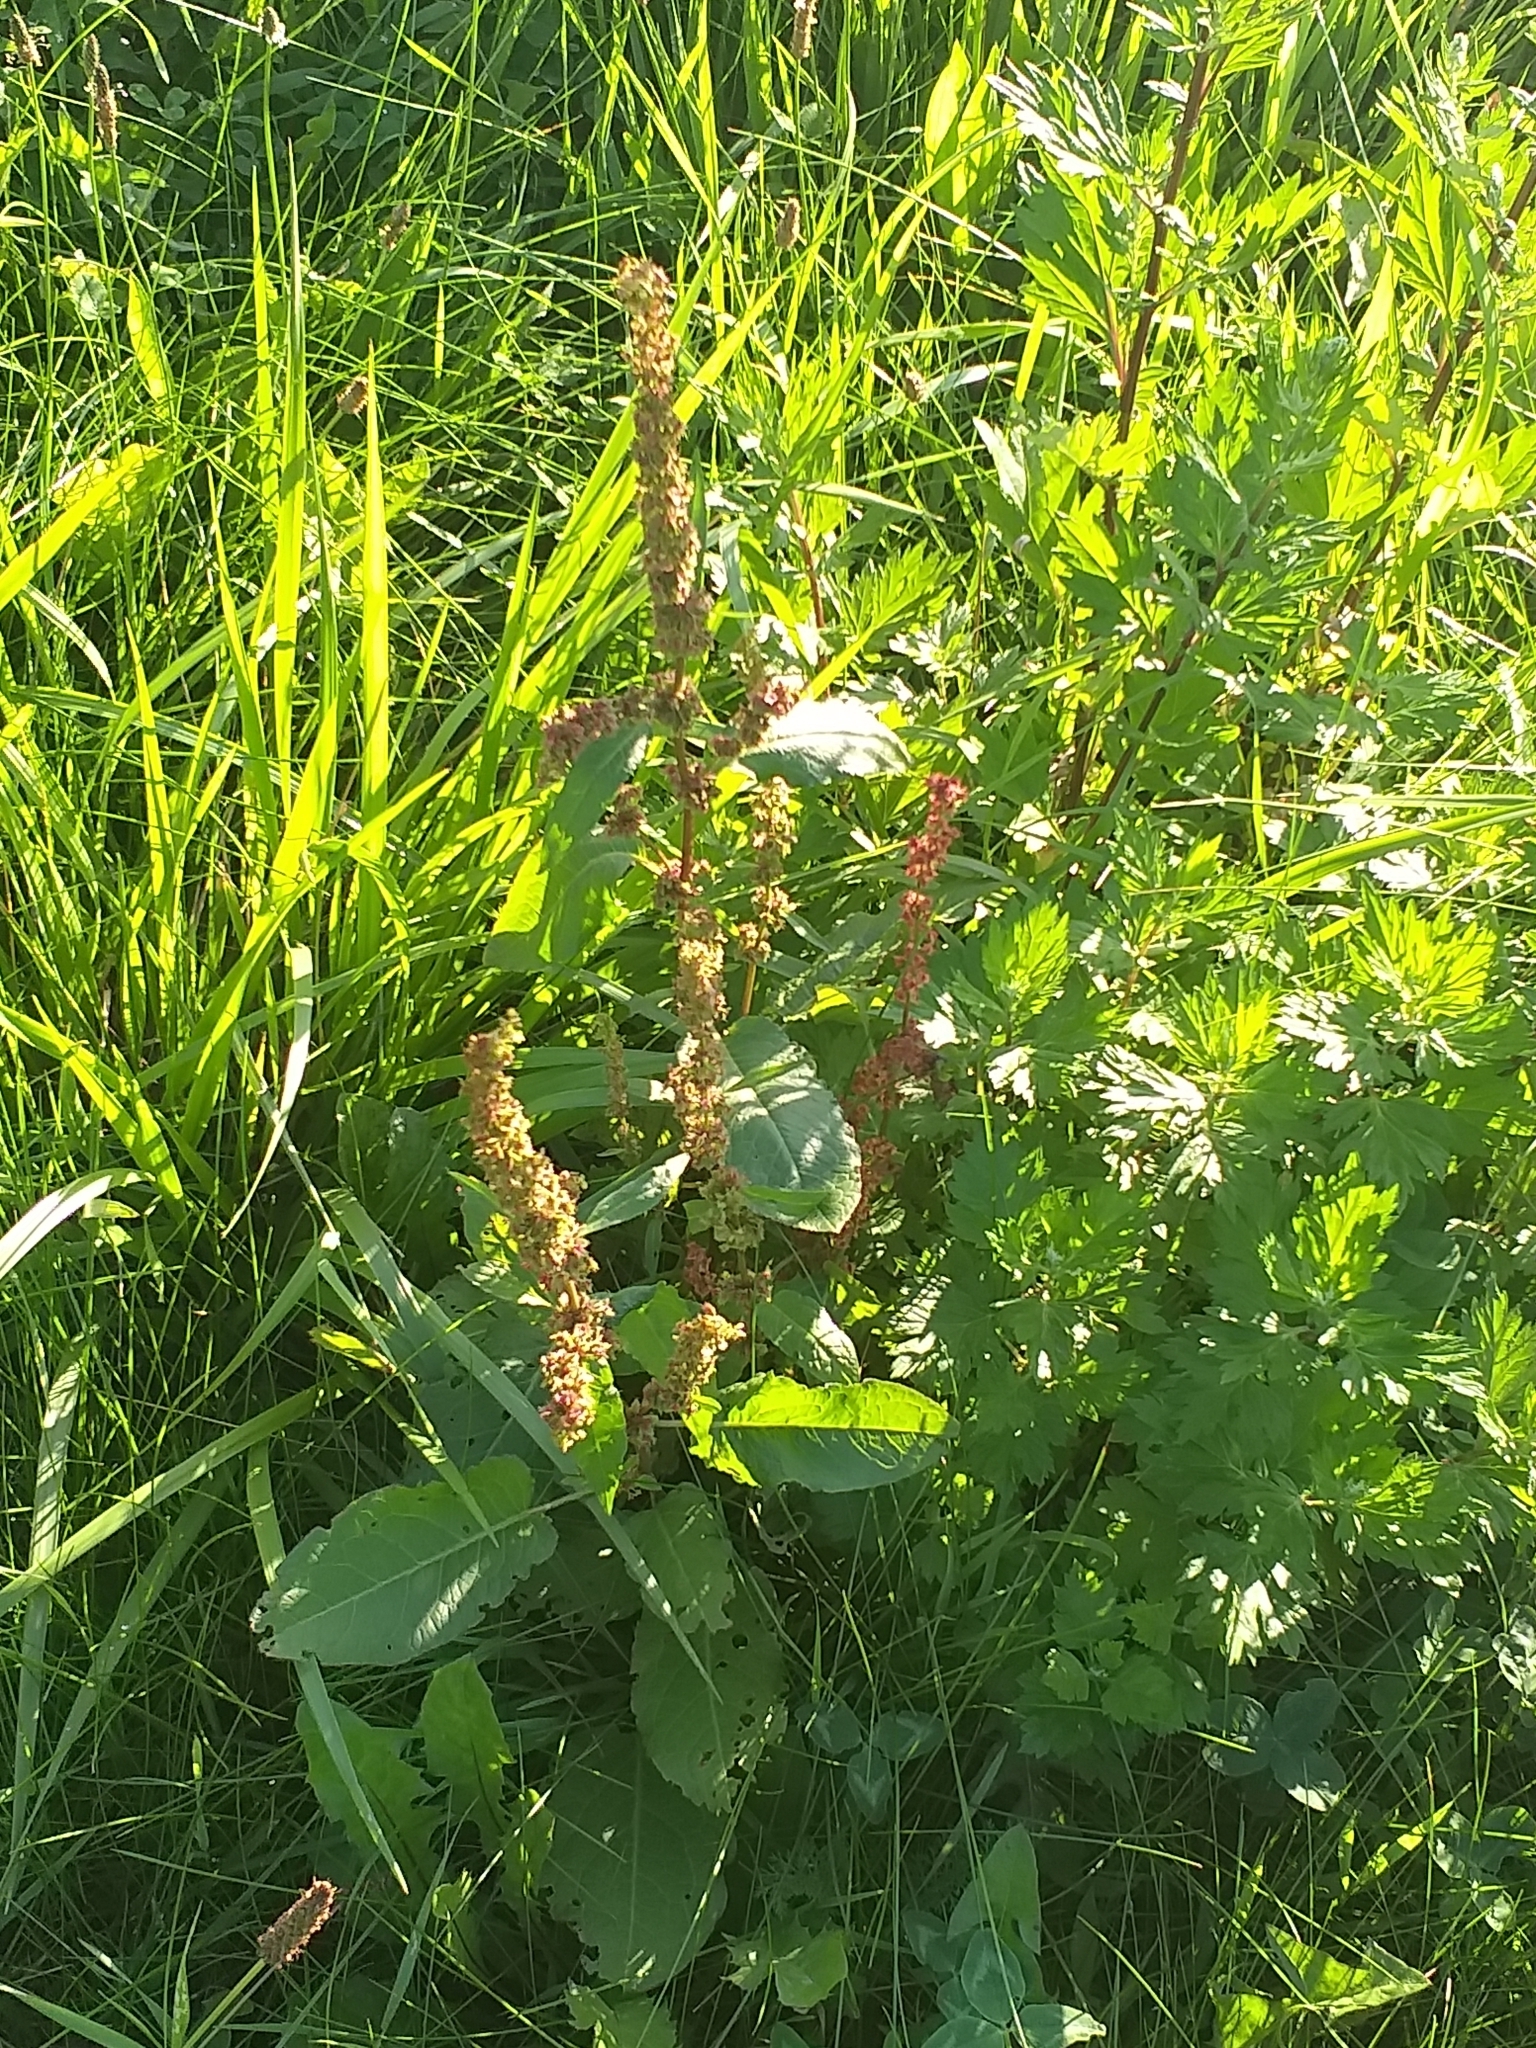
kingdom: Plantae
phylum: Tracheophyta
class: Magnoliopsida
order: Caryophyllales
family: Polygonaceae
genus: Rumex
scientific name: Rumex obtusifolius
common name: Bitter dock
